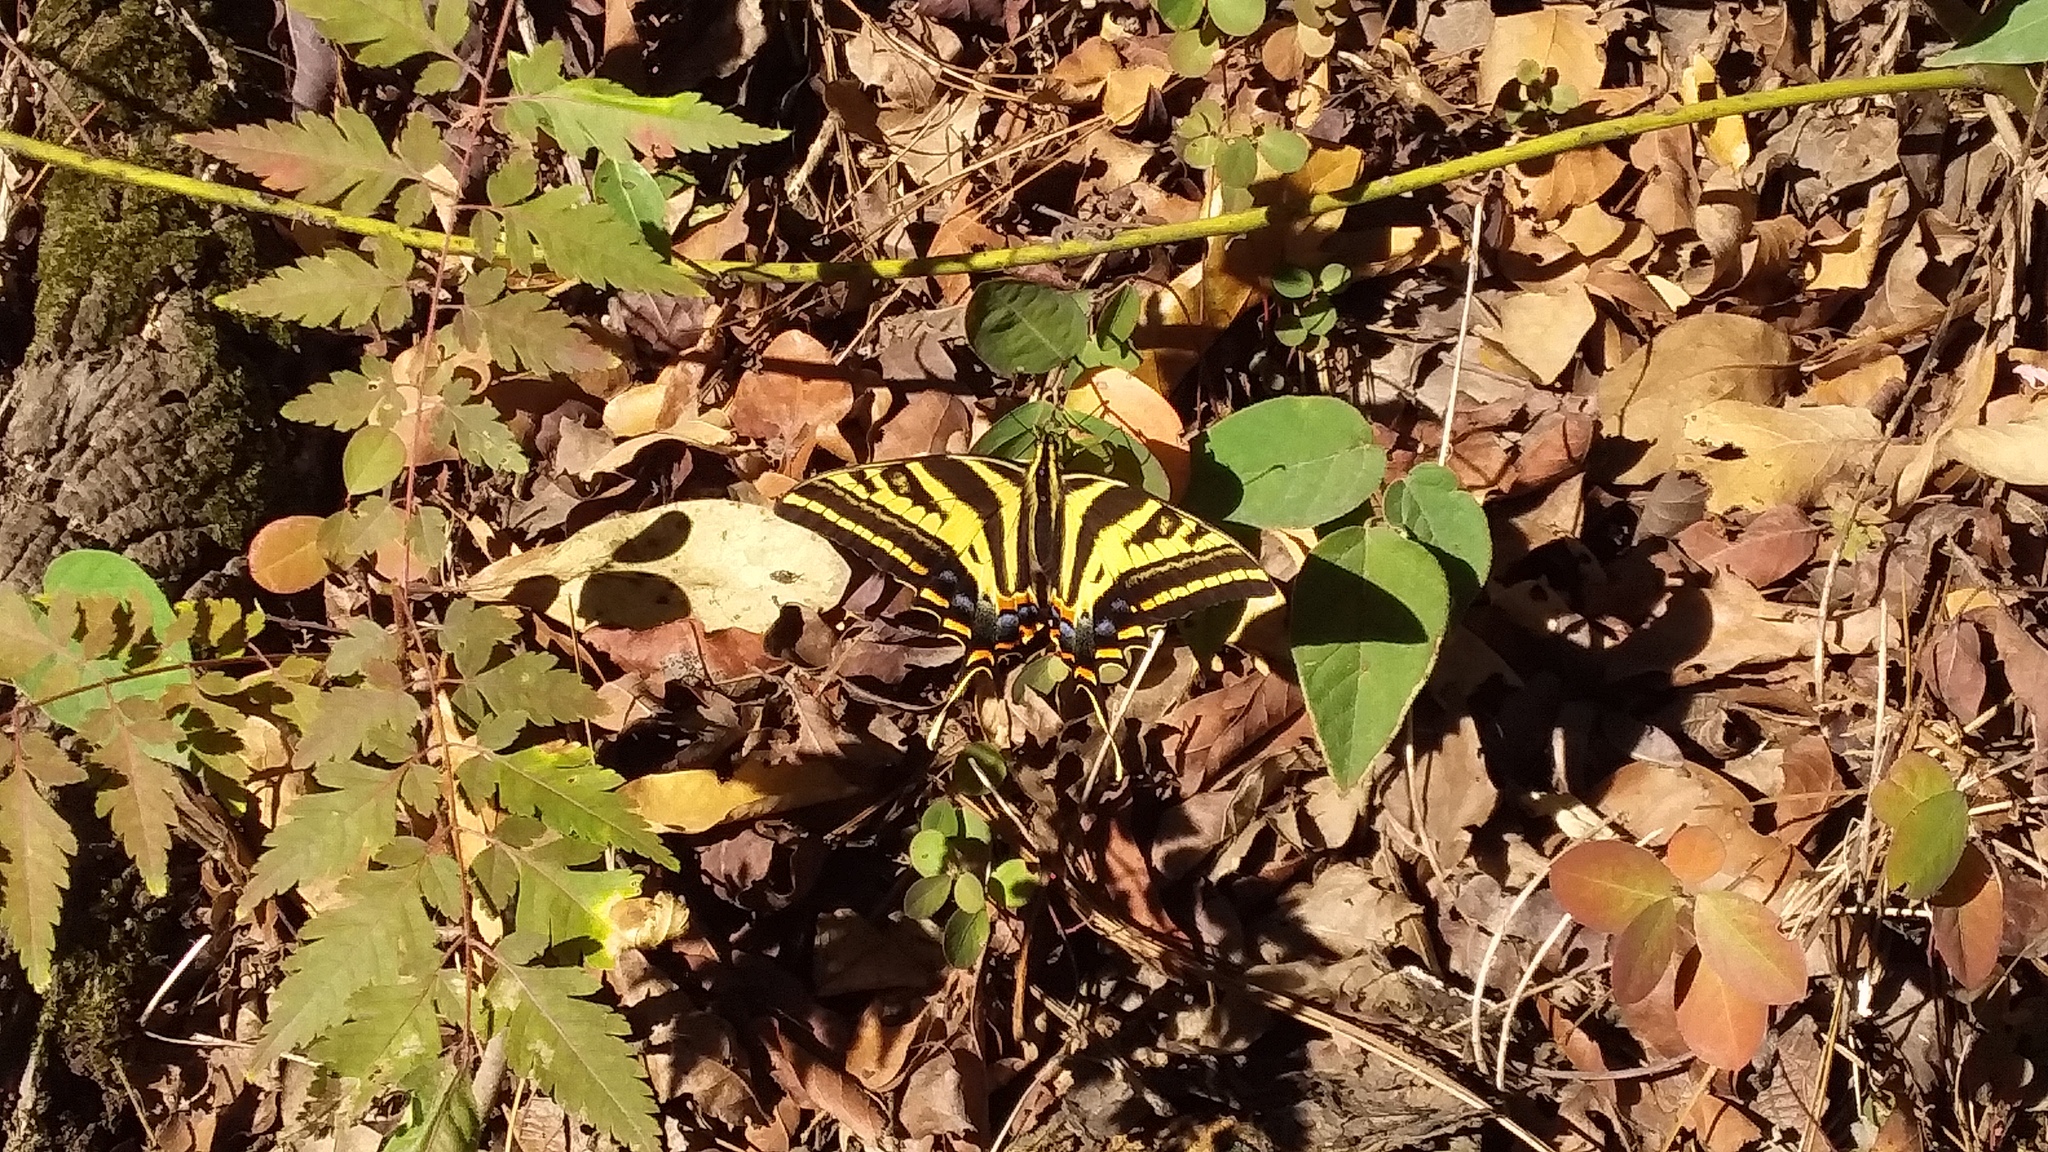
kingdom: Animalia
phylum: Arthropoda
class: Insecta
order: Lepidoptera
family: Papilionidae
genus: Papilio
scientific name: Papilio pilumnus
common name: Three-tailed tiger swallowtail
